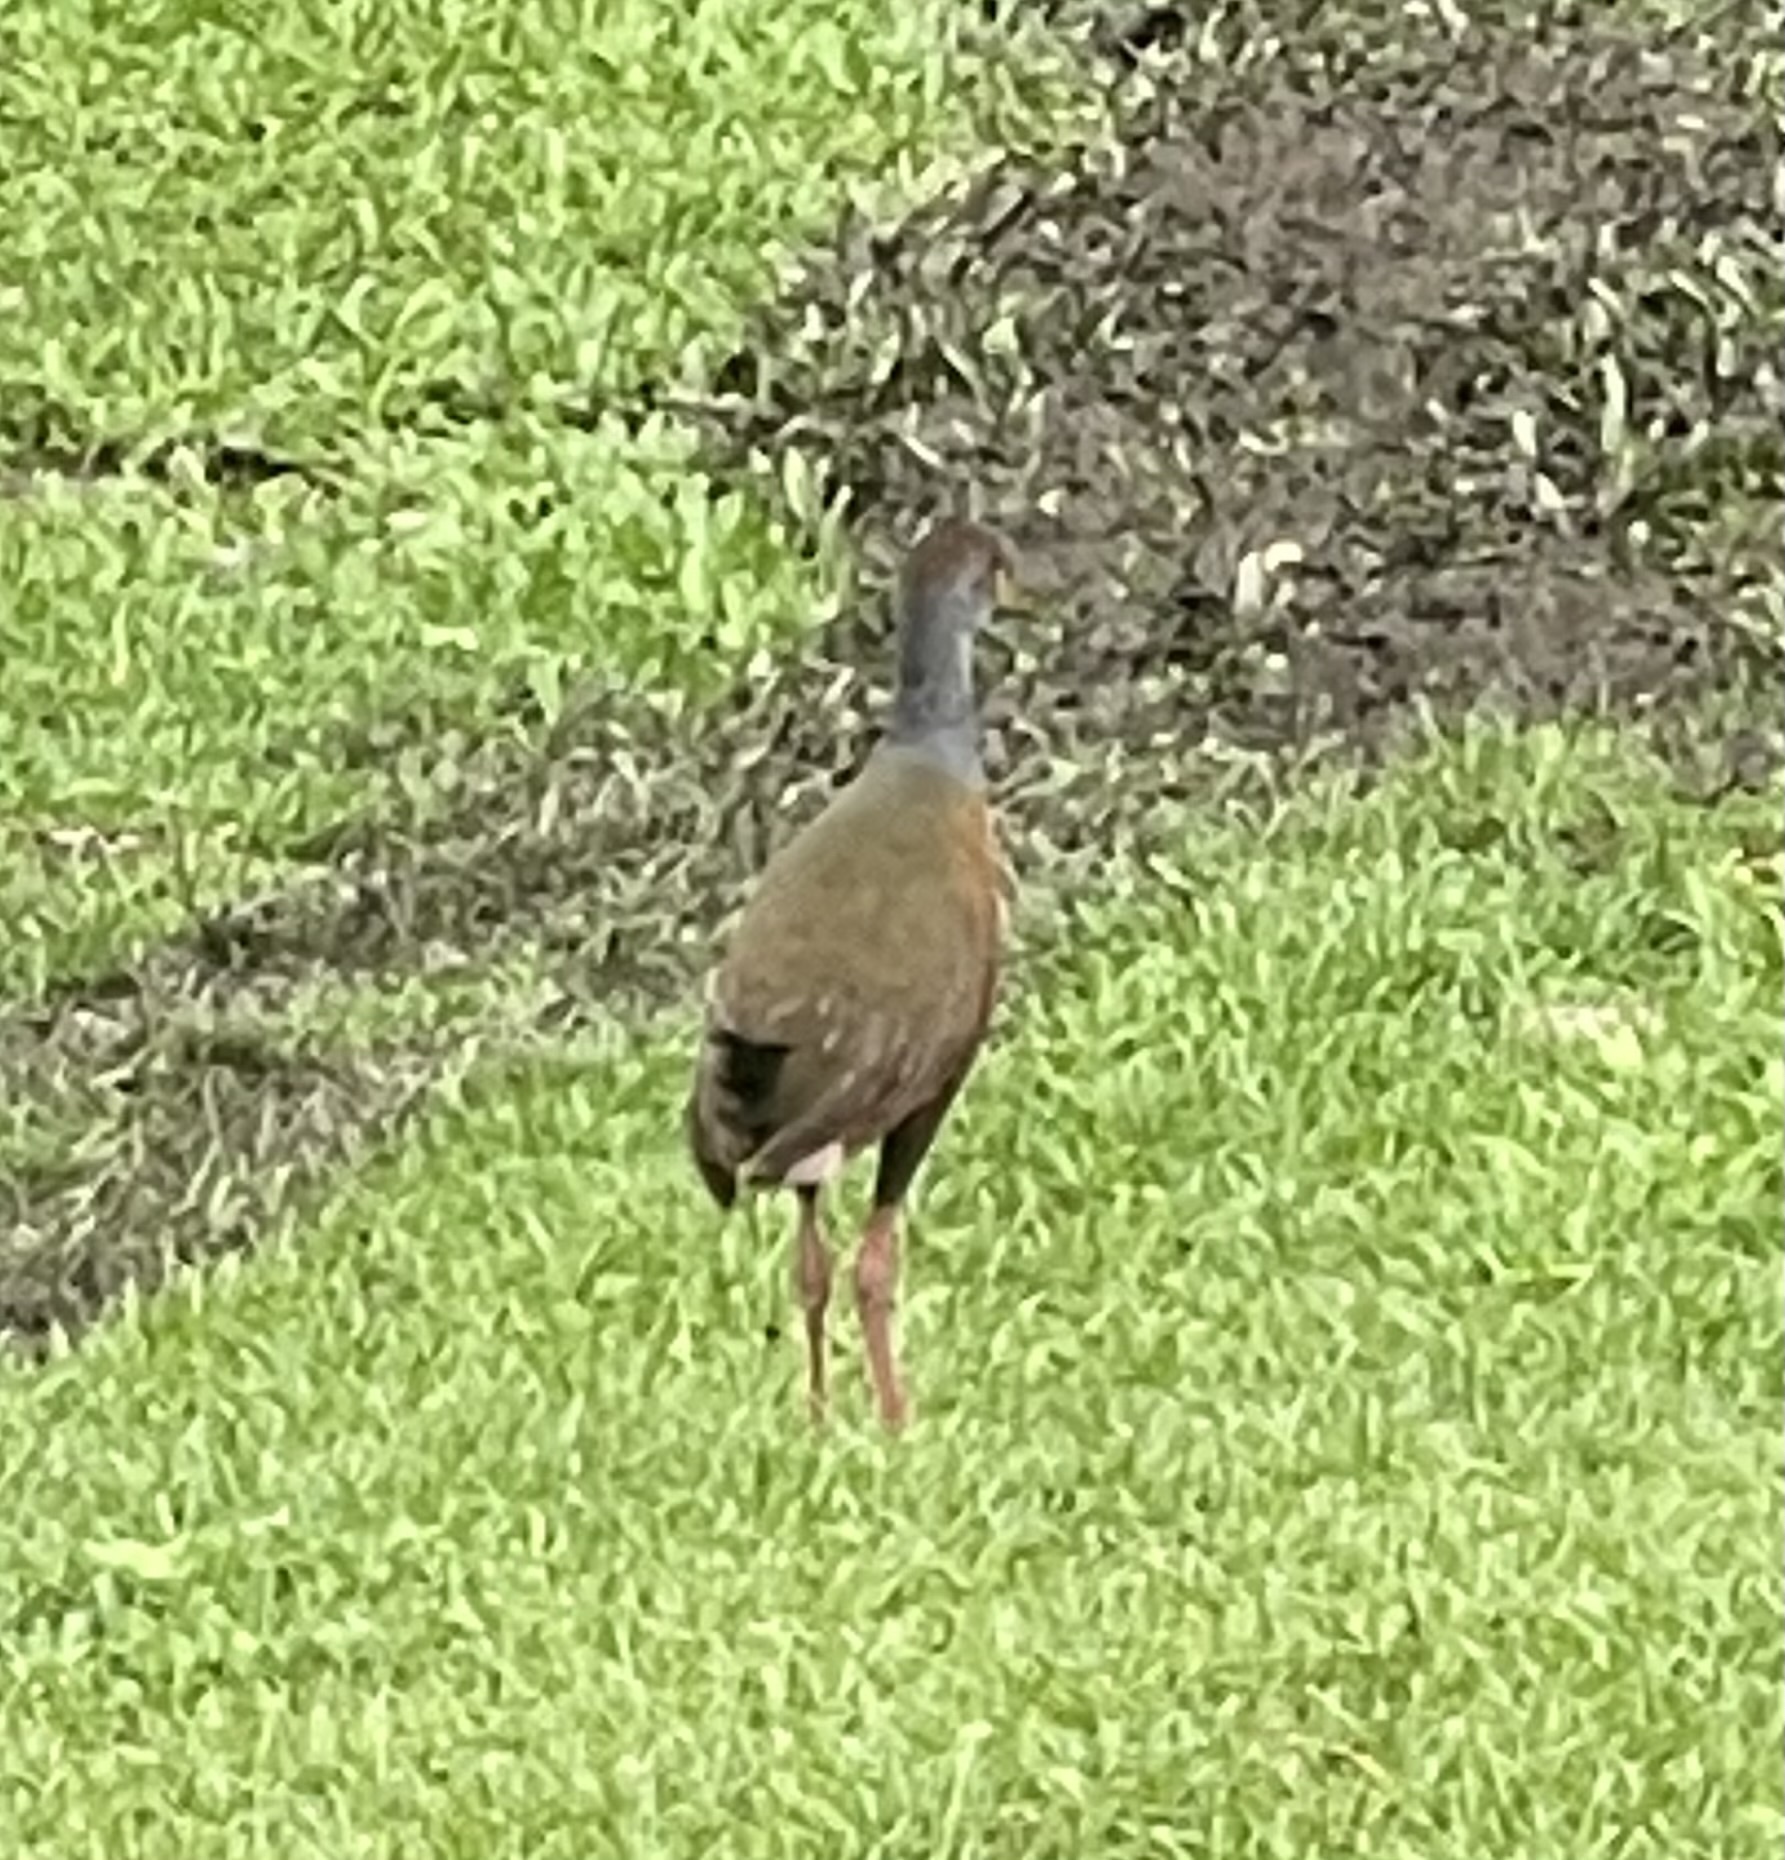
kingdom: Animalia
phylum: Chordata
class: Aves
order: Gruiformes
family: Rallidae
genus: Aramides
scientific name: Aramides cajanea
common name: Gray-necked wood-rail
